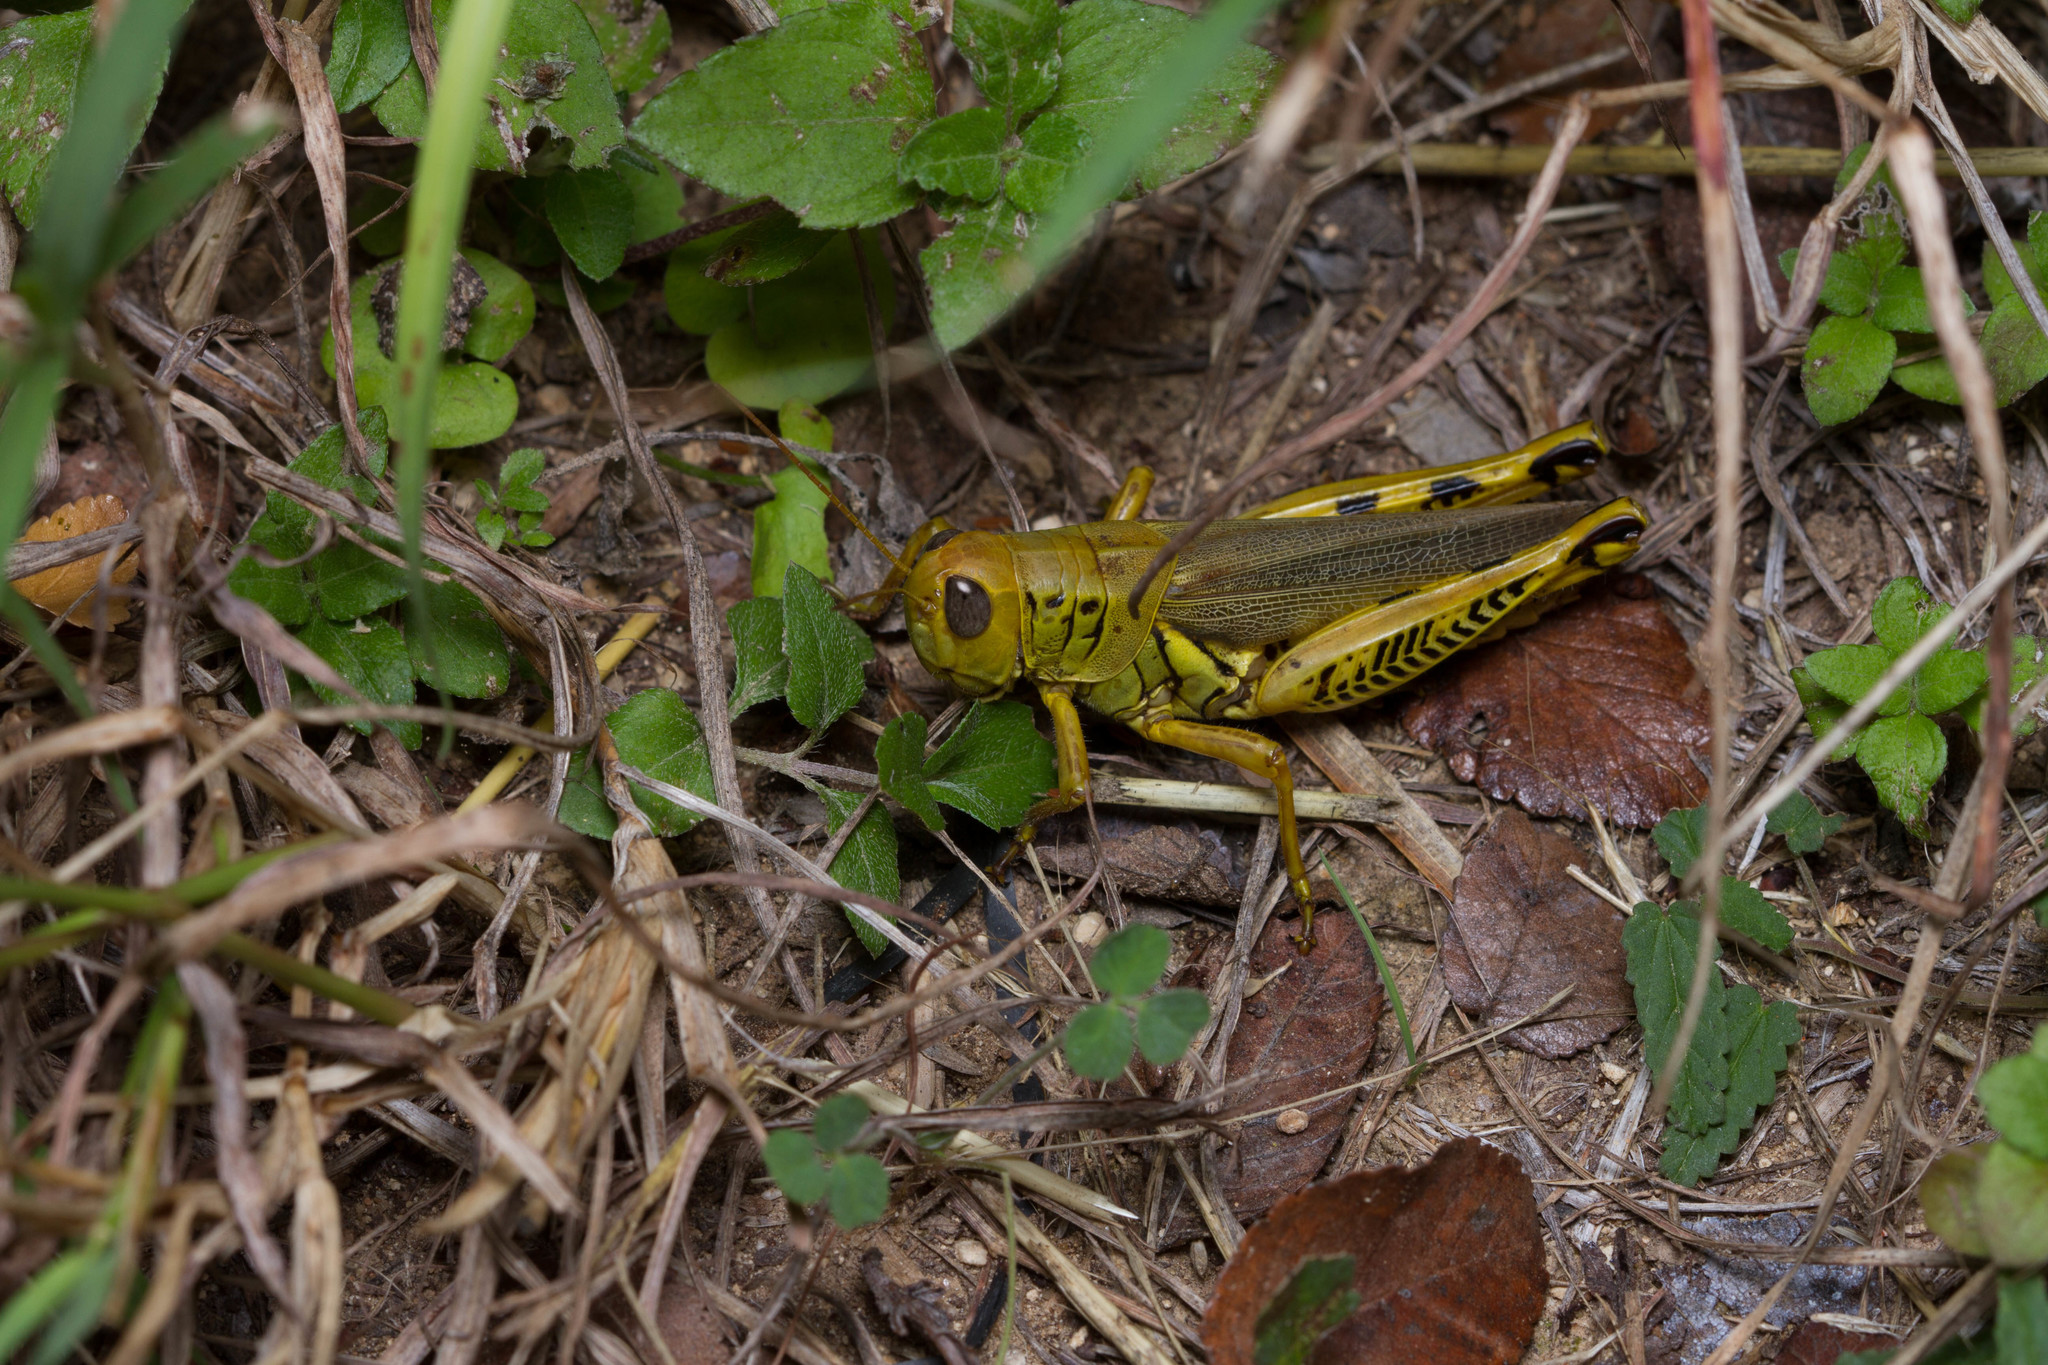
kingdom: Animalia
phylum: Arthropoda
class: Insecta
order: Orthoptera
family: Acrididae
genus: Melanoplus
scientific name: Melanoplus differentialis
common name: Differential grasshopper
